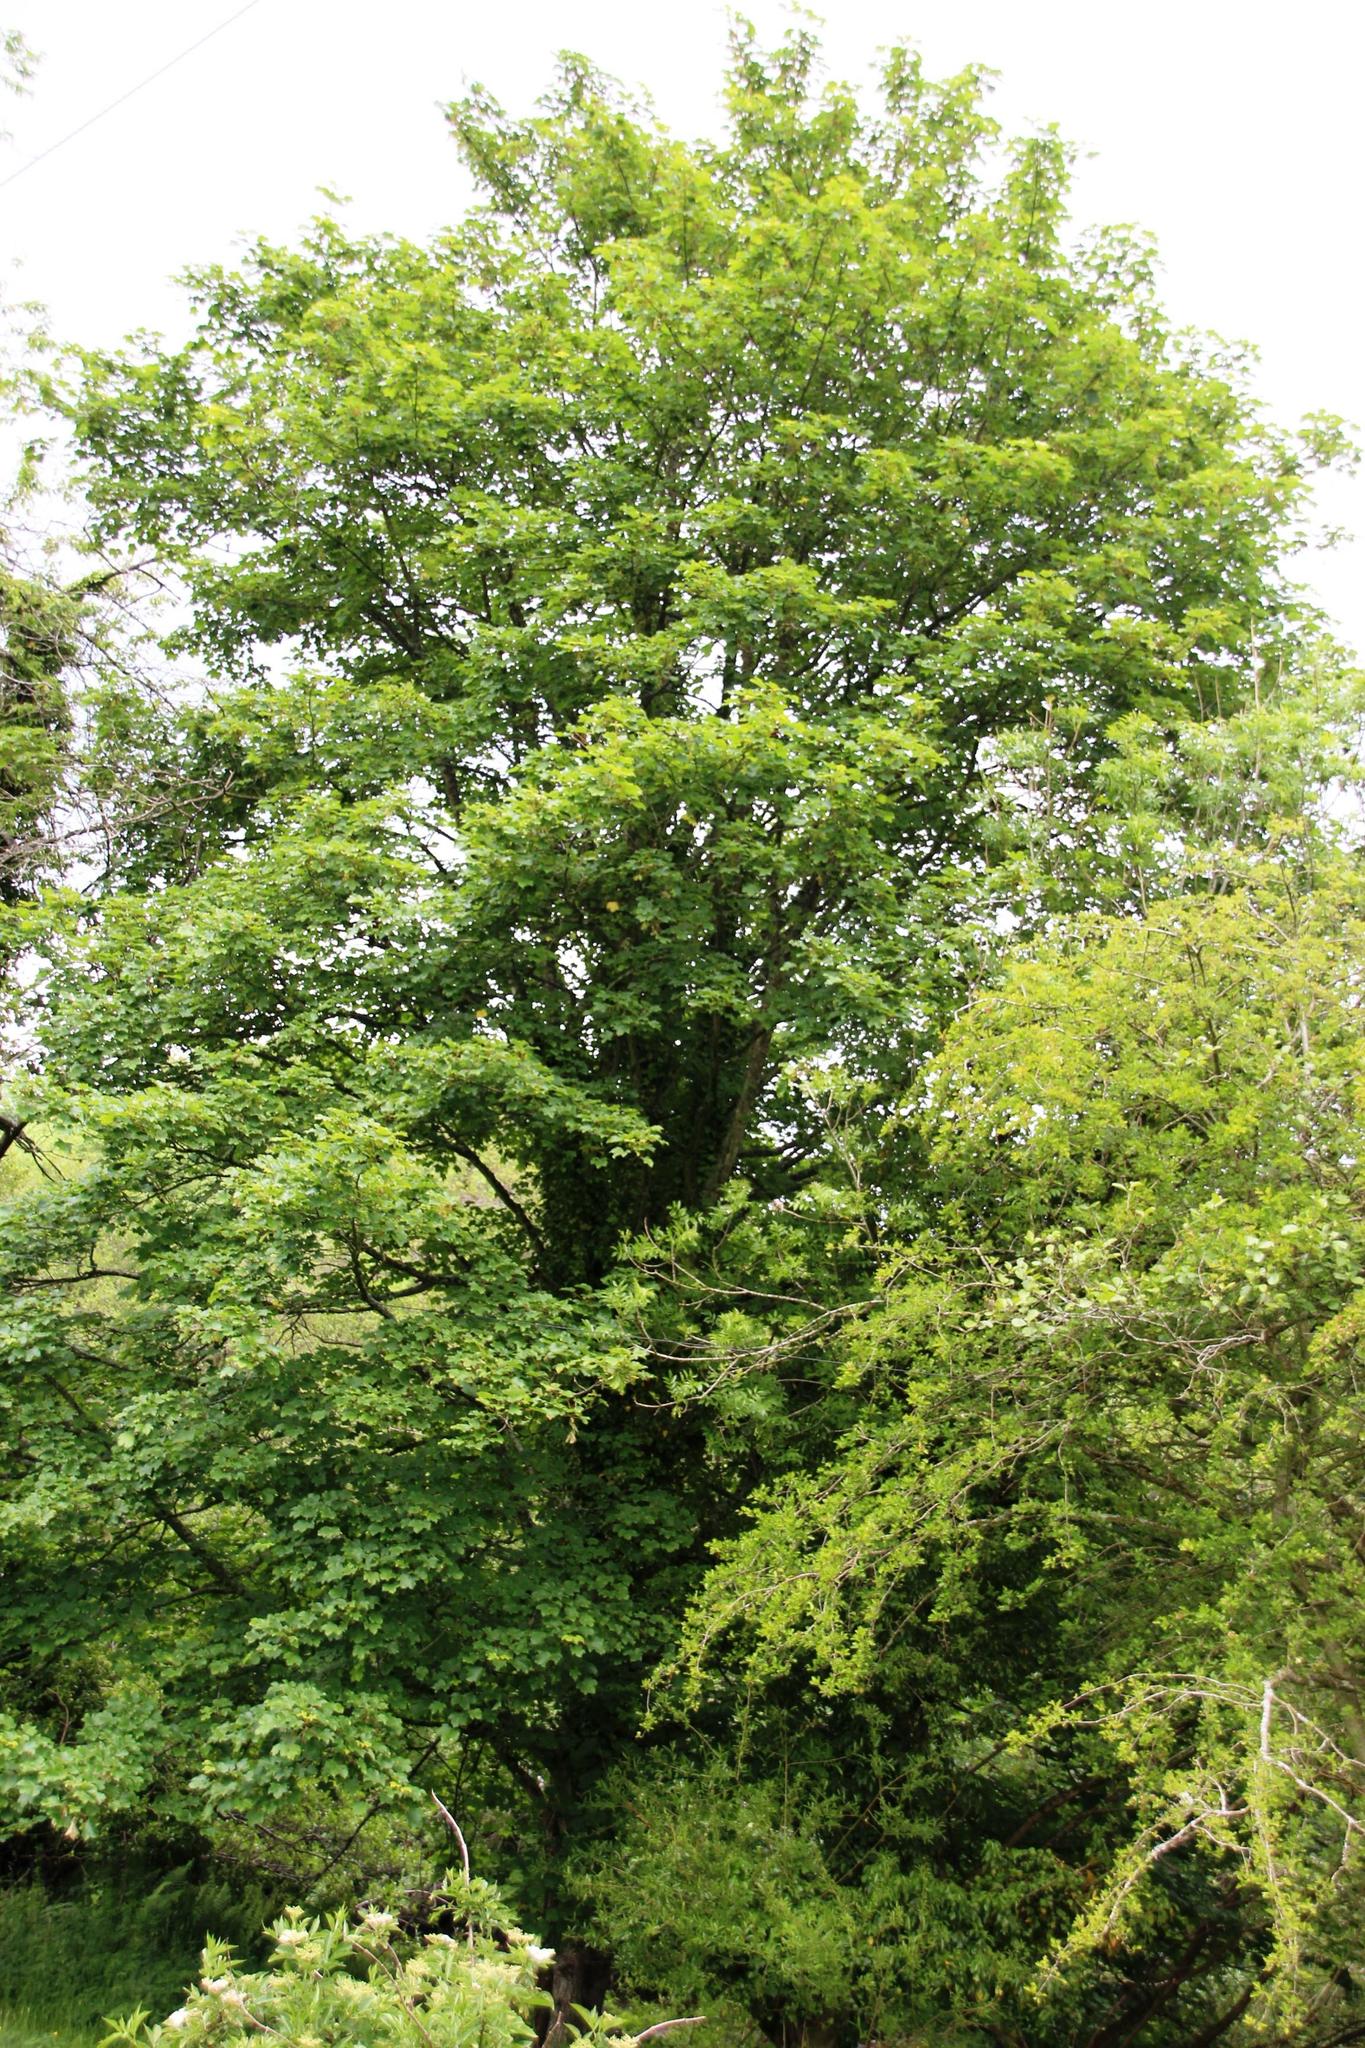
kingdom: Plantae
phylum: Tracheophyta
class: Magnoliopsida
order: Sapindales
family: Sapindaceae
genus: Acer
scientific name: Acer pseudoplatanus
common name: Sycamore
